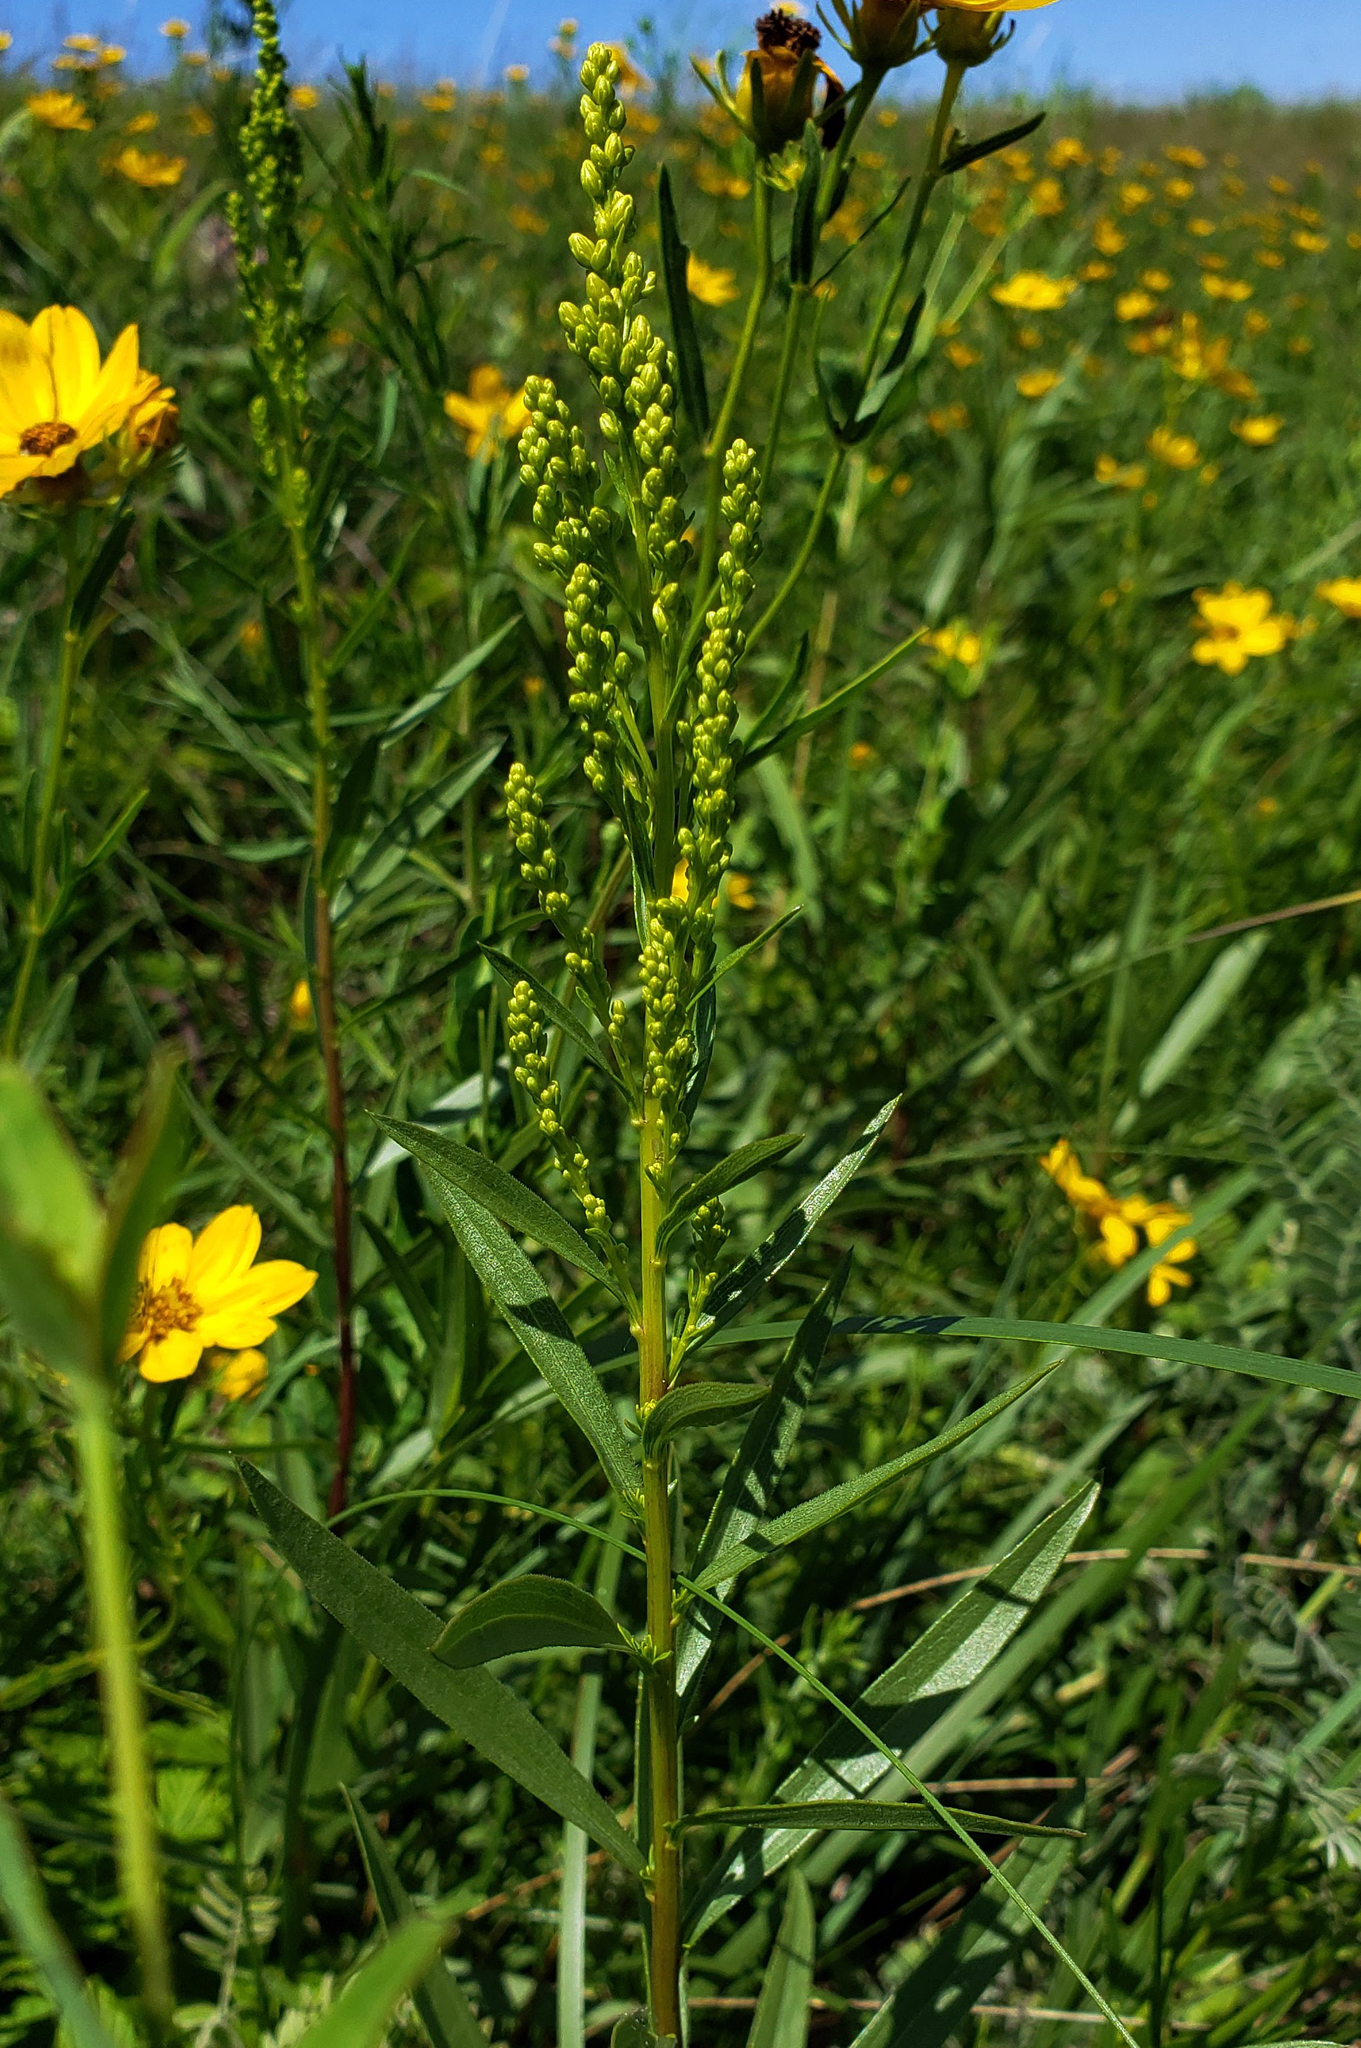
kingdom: Plantae
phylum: Tracheophyta
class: Magnoliopsida
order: Asterales
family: Asteraceae
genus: Solidago
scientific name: Solidago juncea
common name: Early goldenrod
